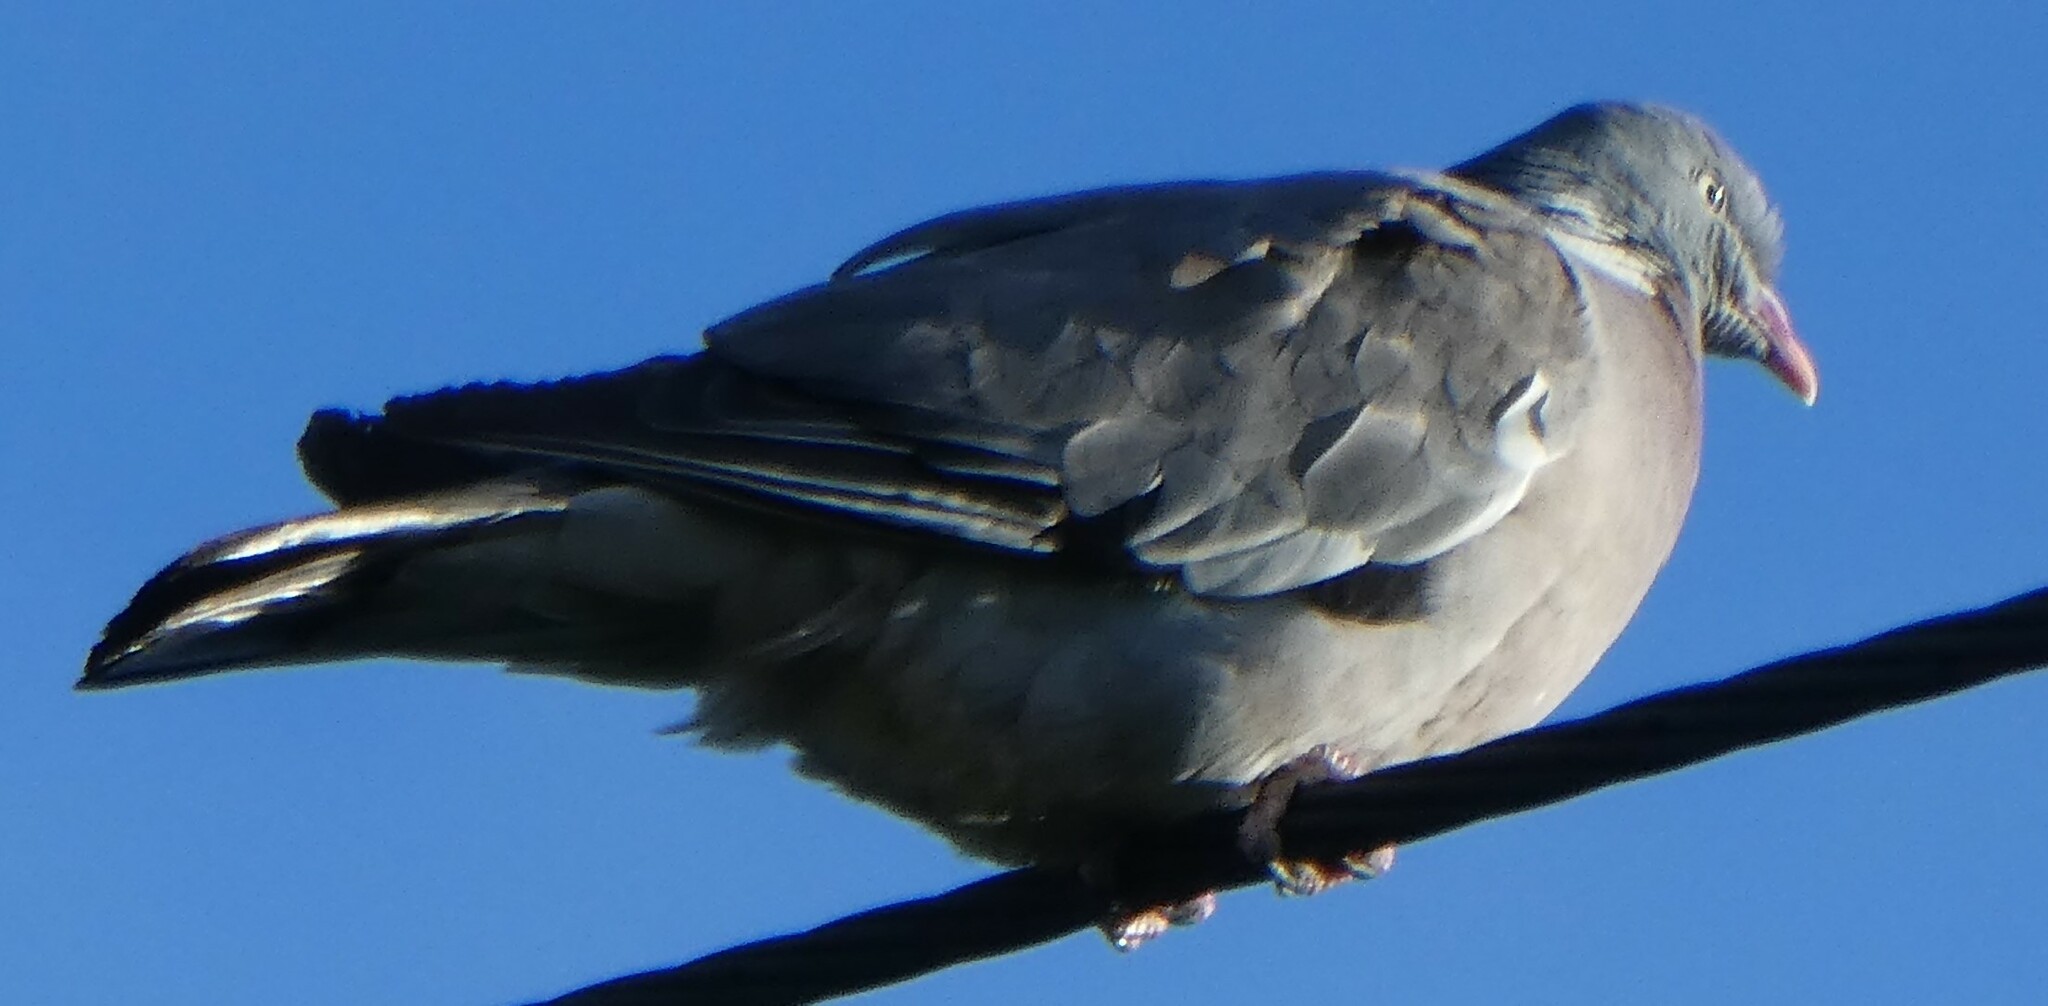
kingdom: Animalia
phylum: Chordata
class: Aves
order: Columbiformes
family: Columbidae
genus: Columba
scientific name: Columba palumbus
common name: Common wood pigeon
